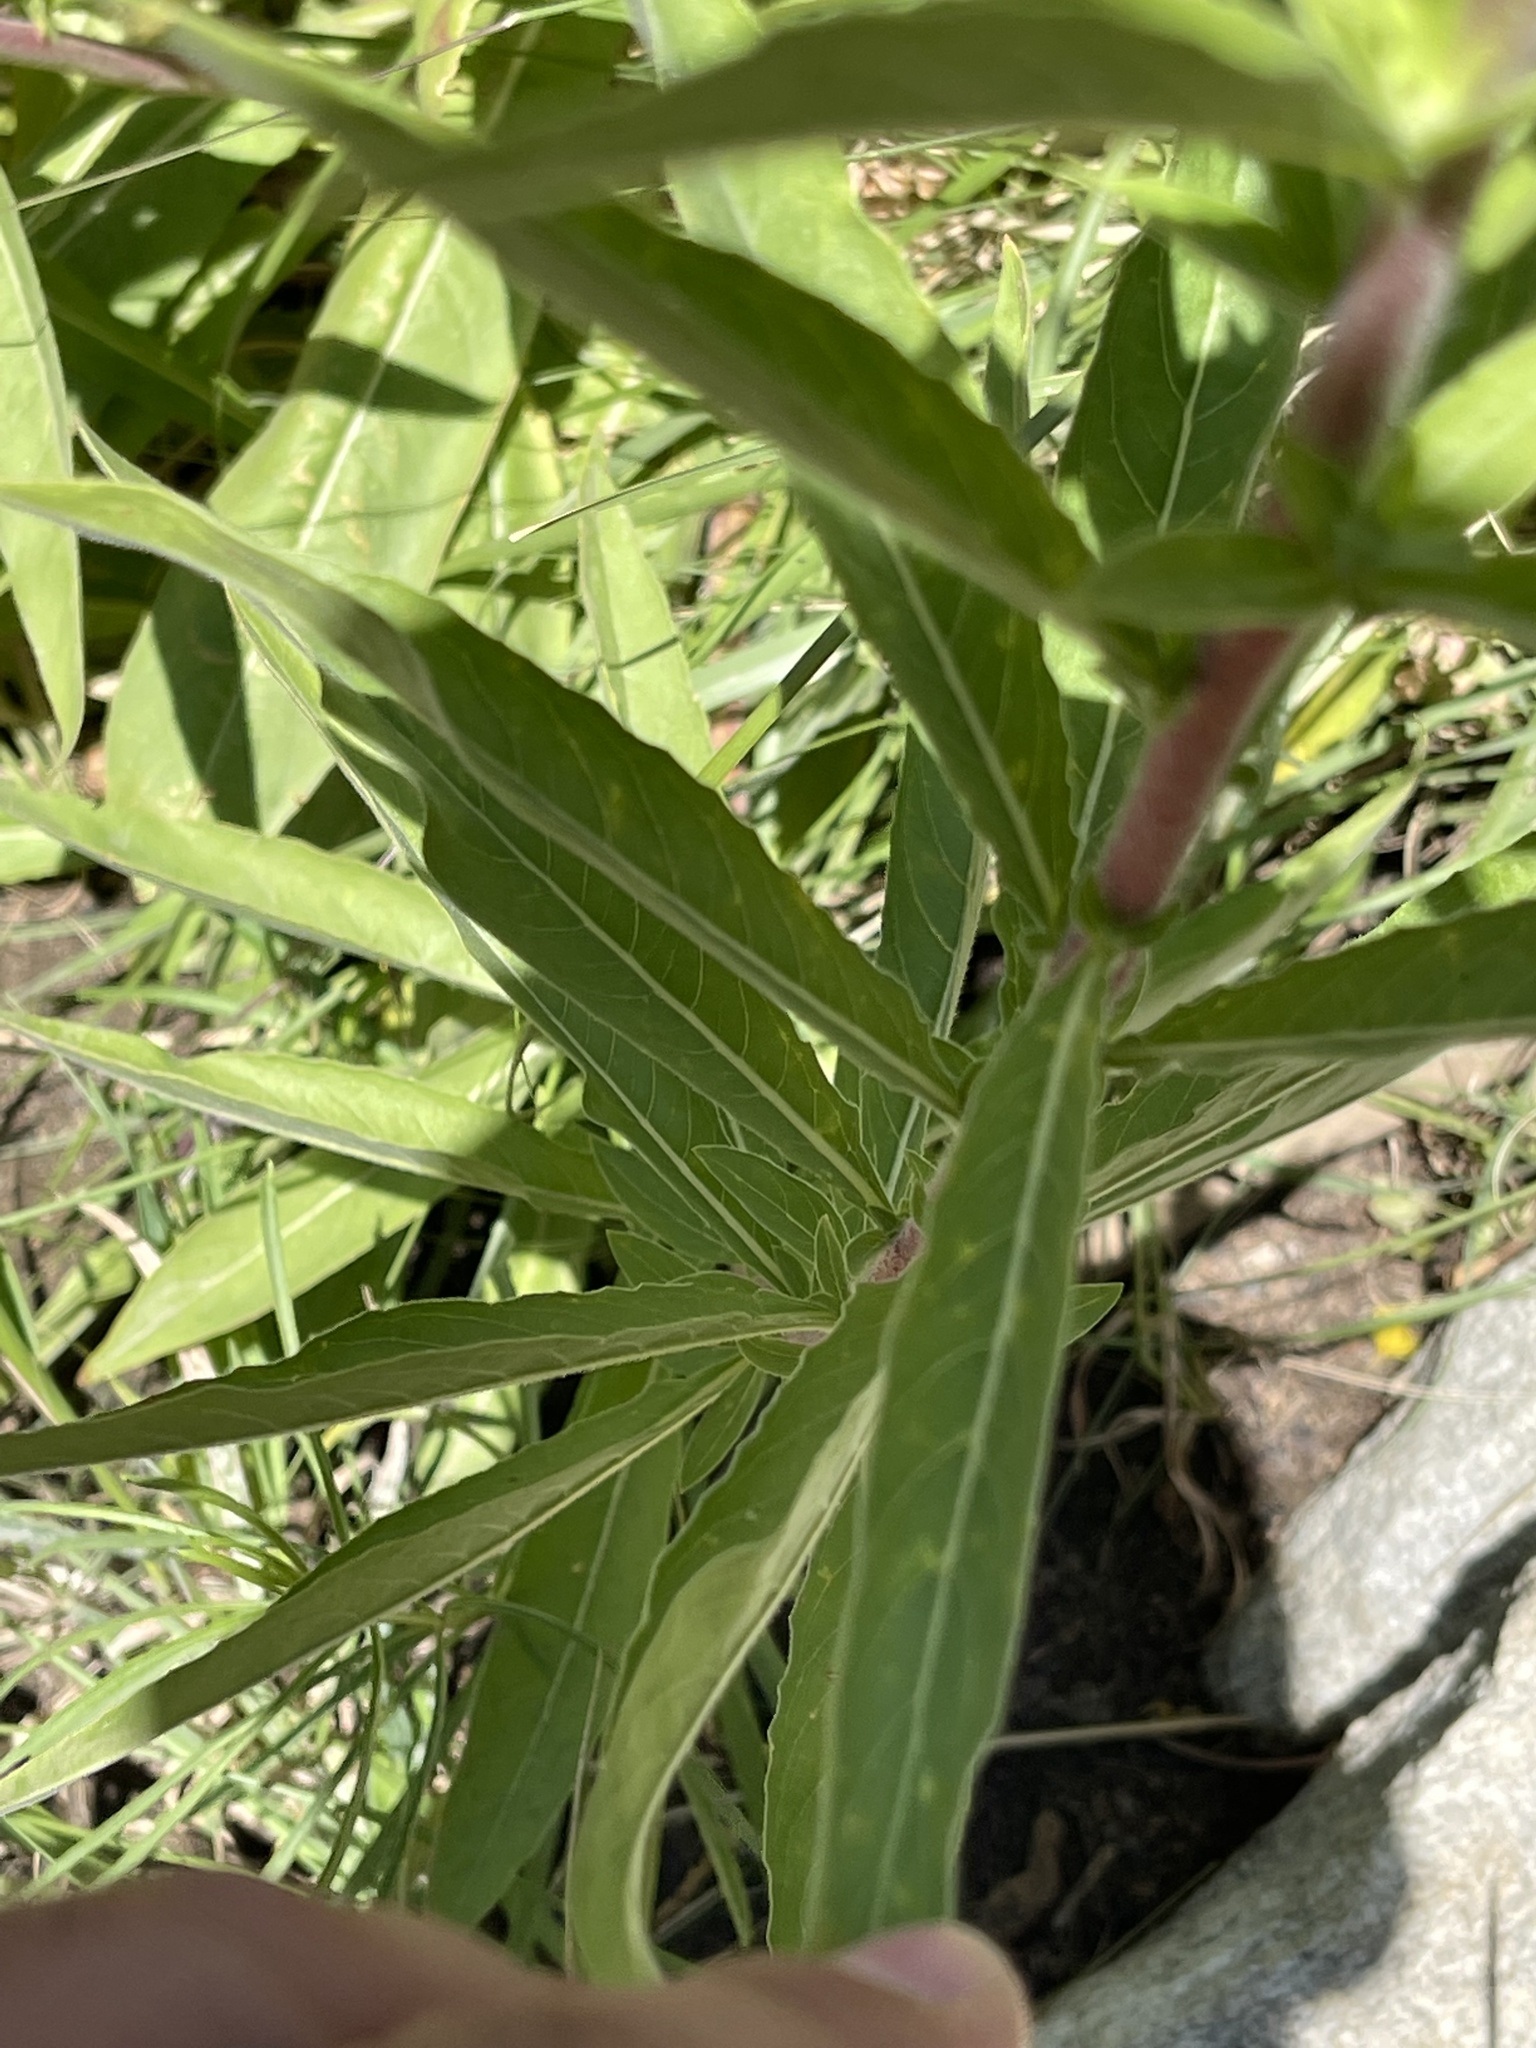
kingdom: Plantae
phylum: Tracheophyta
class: Magnoliopsida
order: Myrtales
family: Onagraceae
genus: Oenothera
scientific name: Oenothera elata
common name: Hooker's evening-primrose
